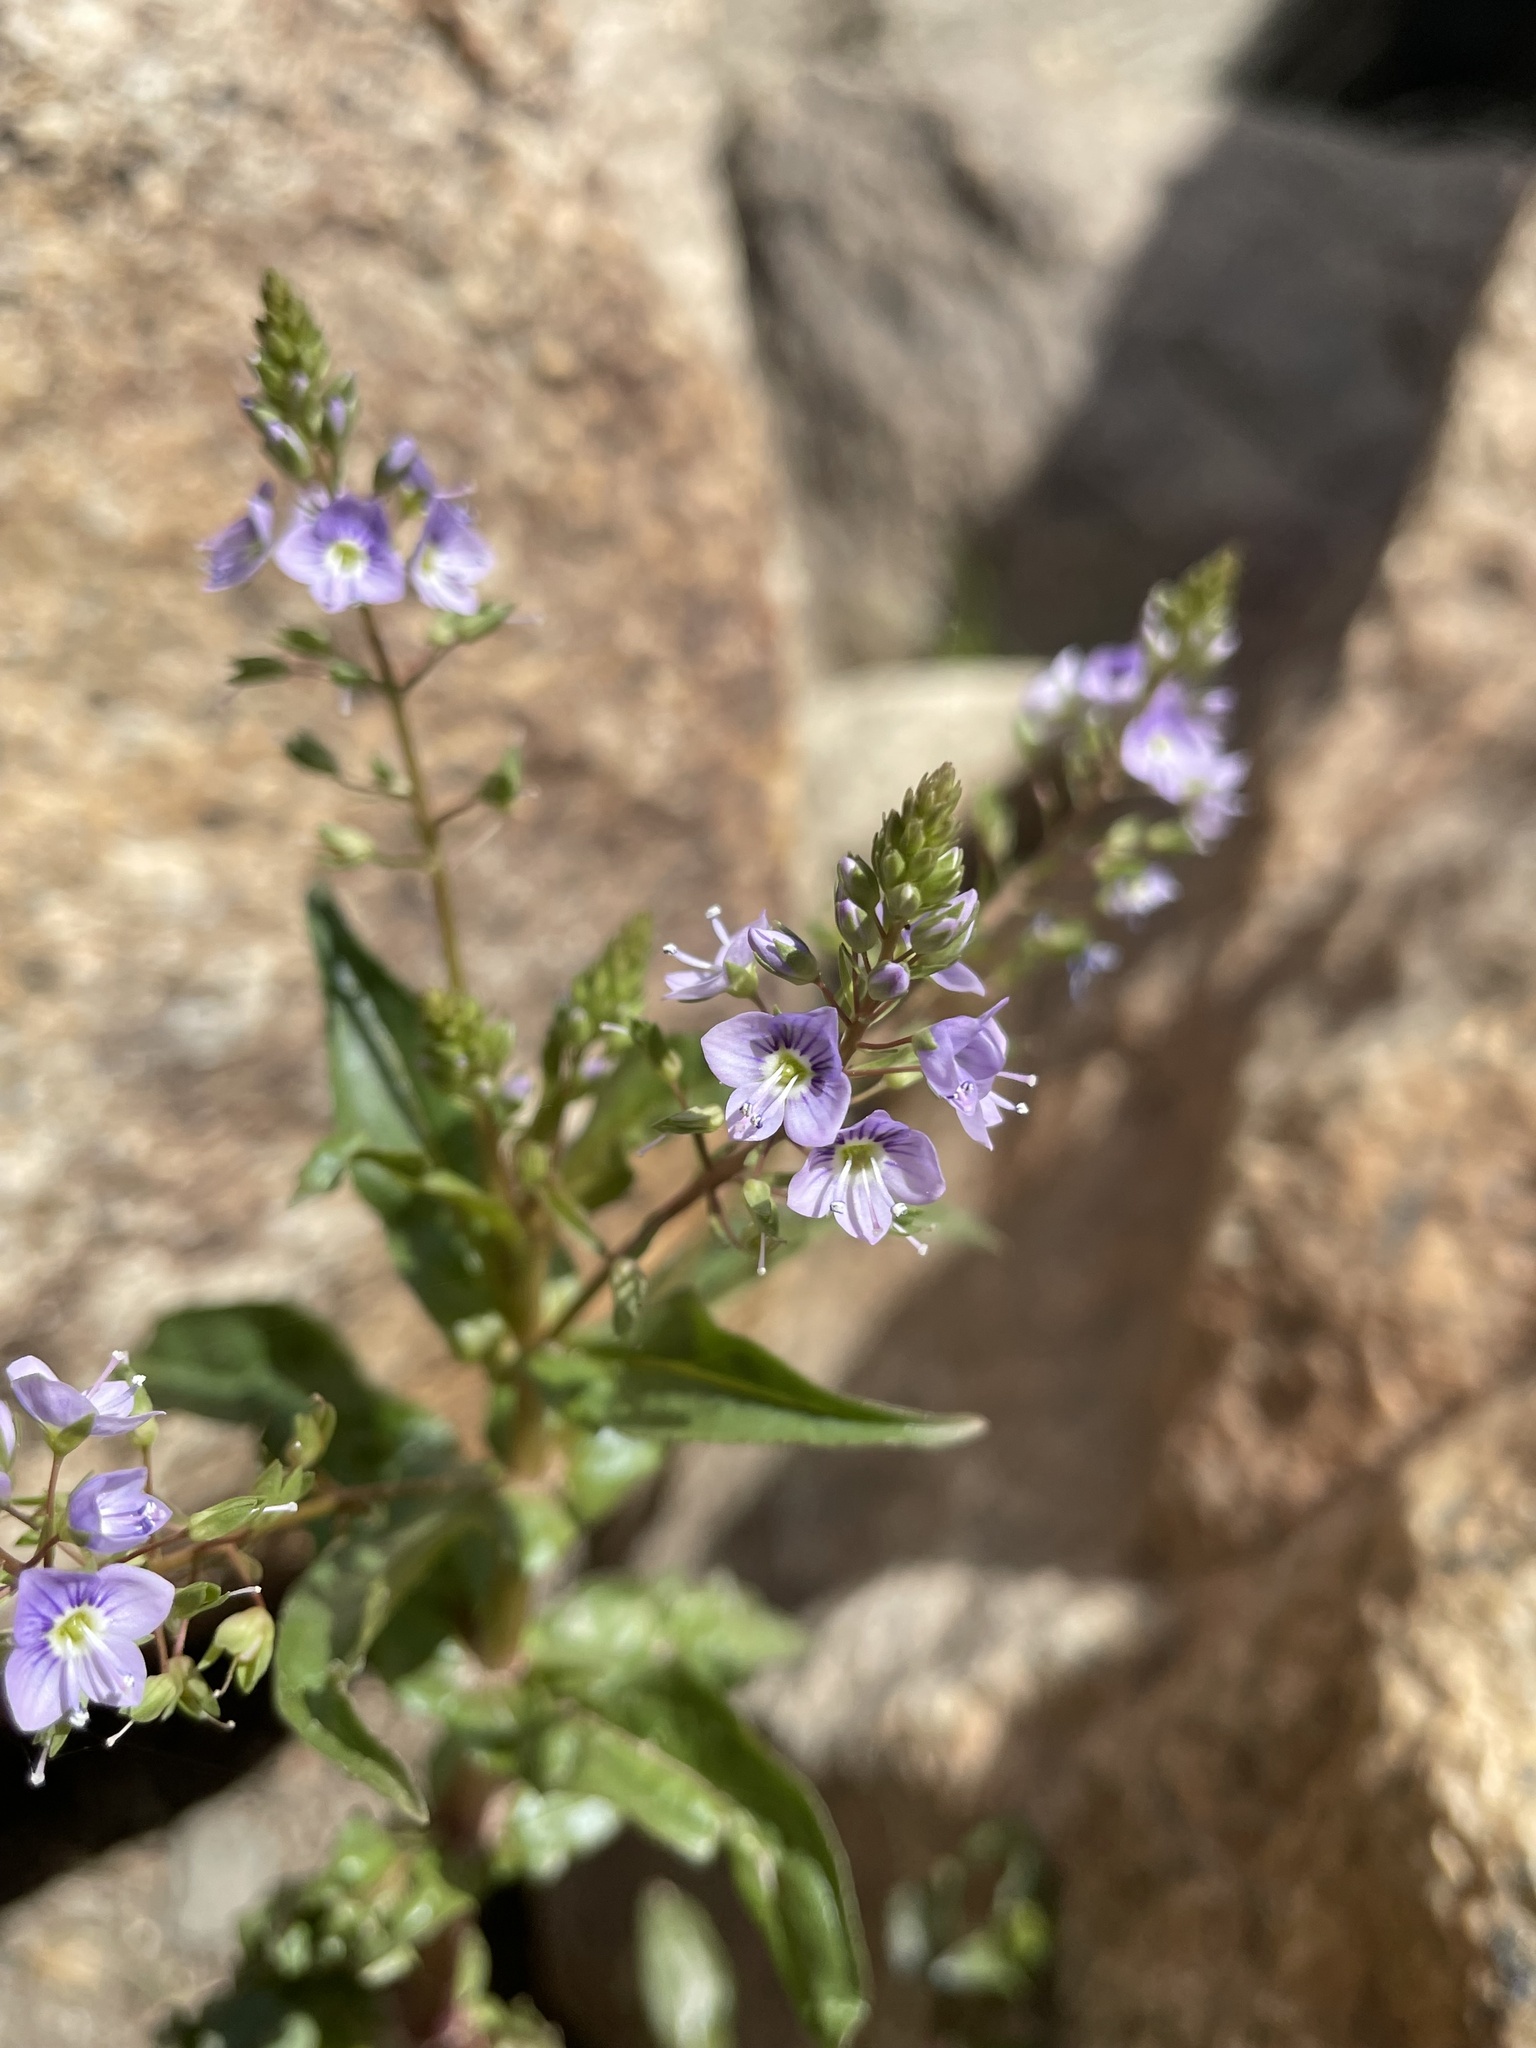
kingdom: Plantae
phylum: Tracheophyta
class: Magnoliopsida
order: Lamiales
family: Plantaginaceae
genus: Veronica
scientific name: Veronica anagallis-aquatica
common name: Water speedwell
